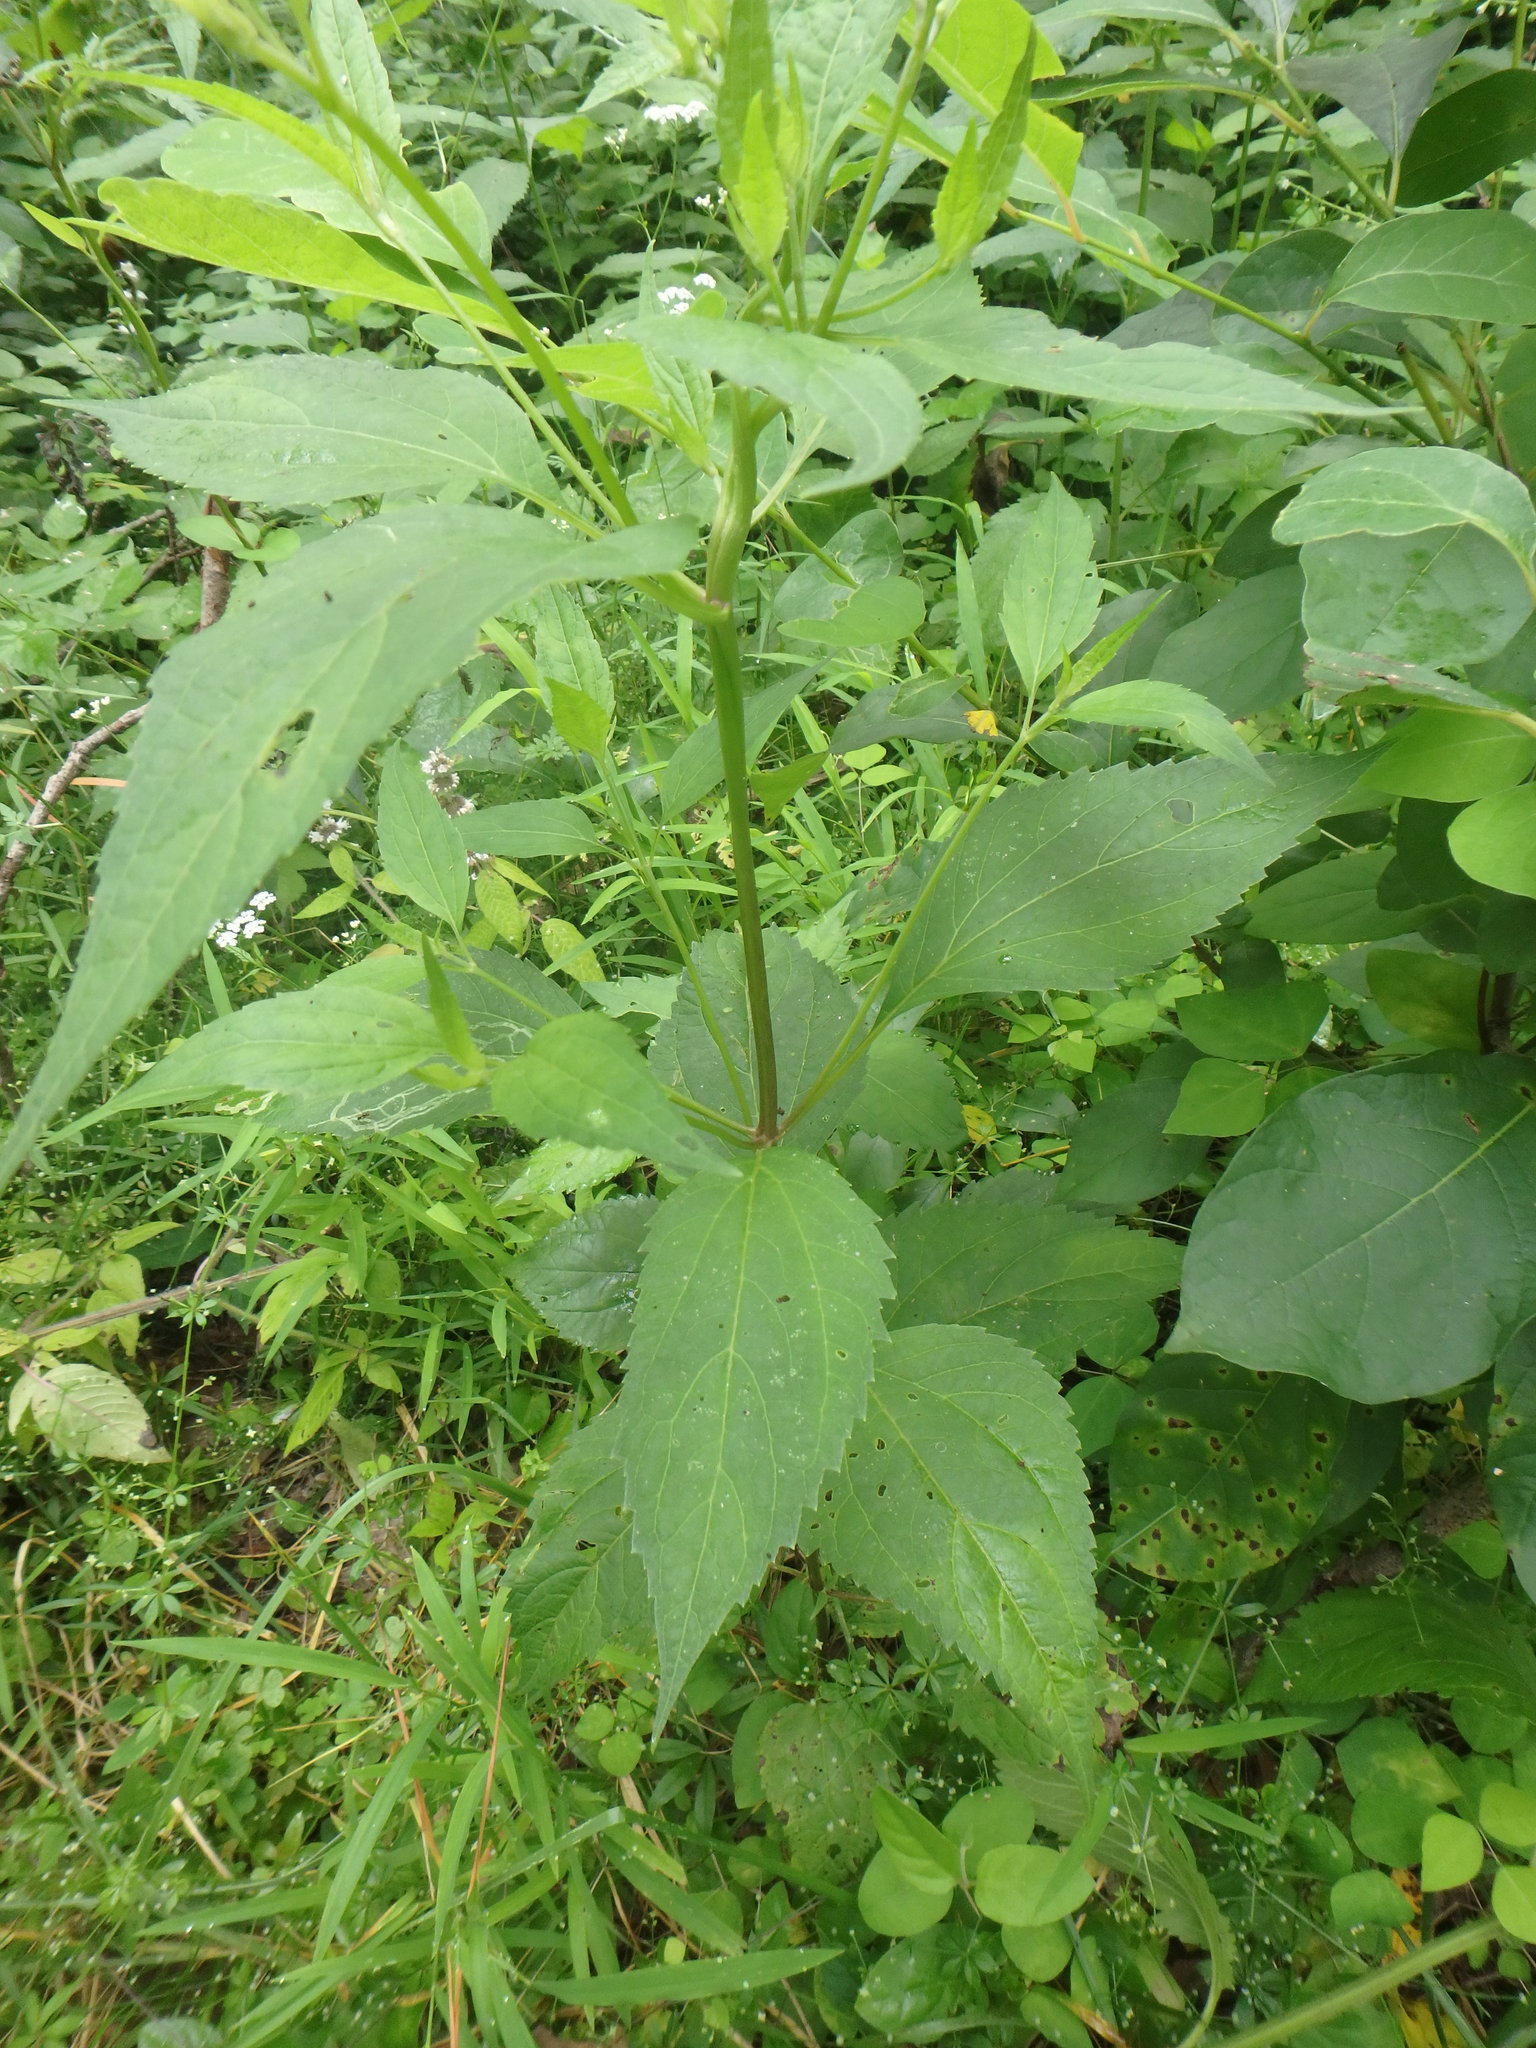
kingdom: Plantae
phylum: Tracheophyta
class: Magnoliopsida
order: Lamiales
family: Verbenaceae
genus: Verbena
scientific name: Verbena urticifolia
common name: Nettle-leaved vervain
